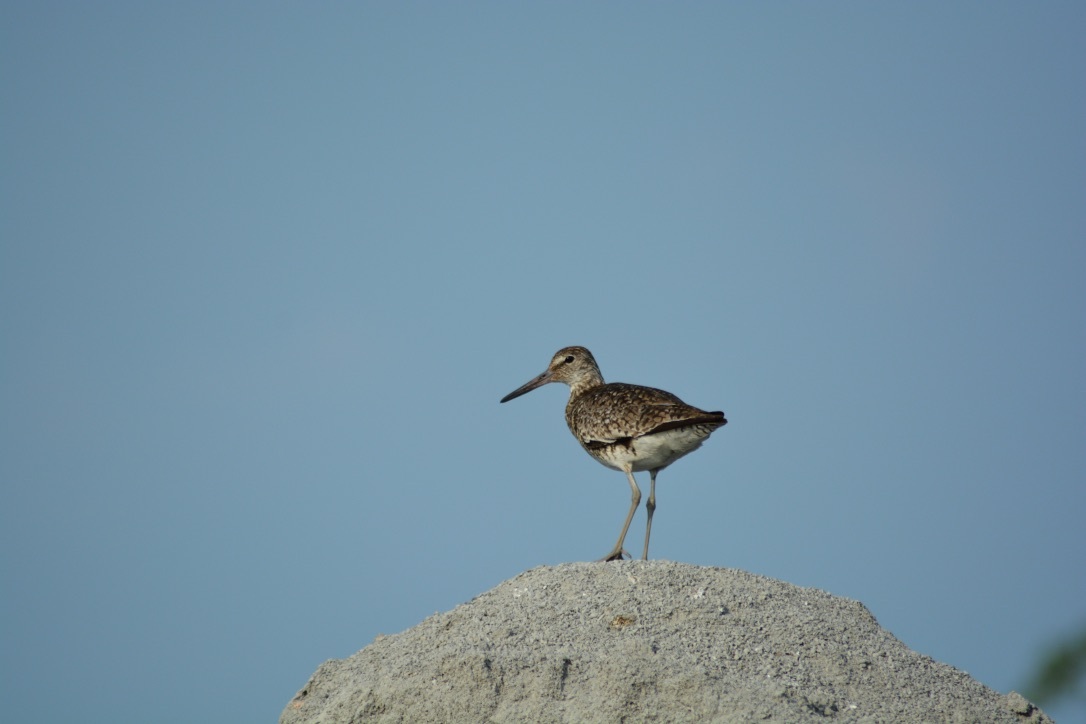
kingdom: Animalia
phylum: Chordata
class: Aves
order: Charadriiformes
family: Scolopacidae
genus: Tringa
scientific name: Tringa semipalmata
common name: Willet
